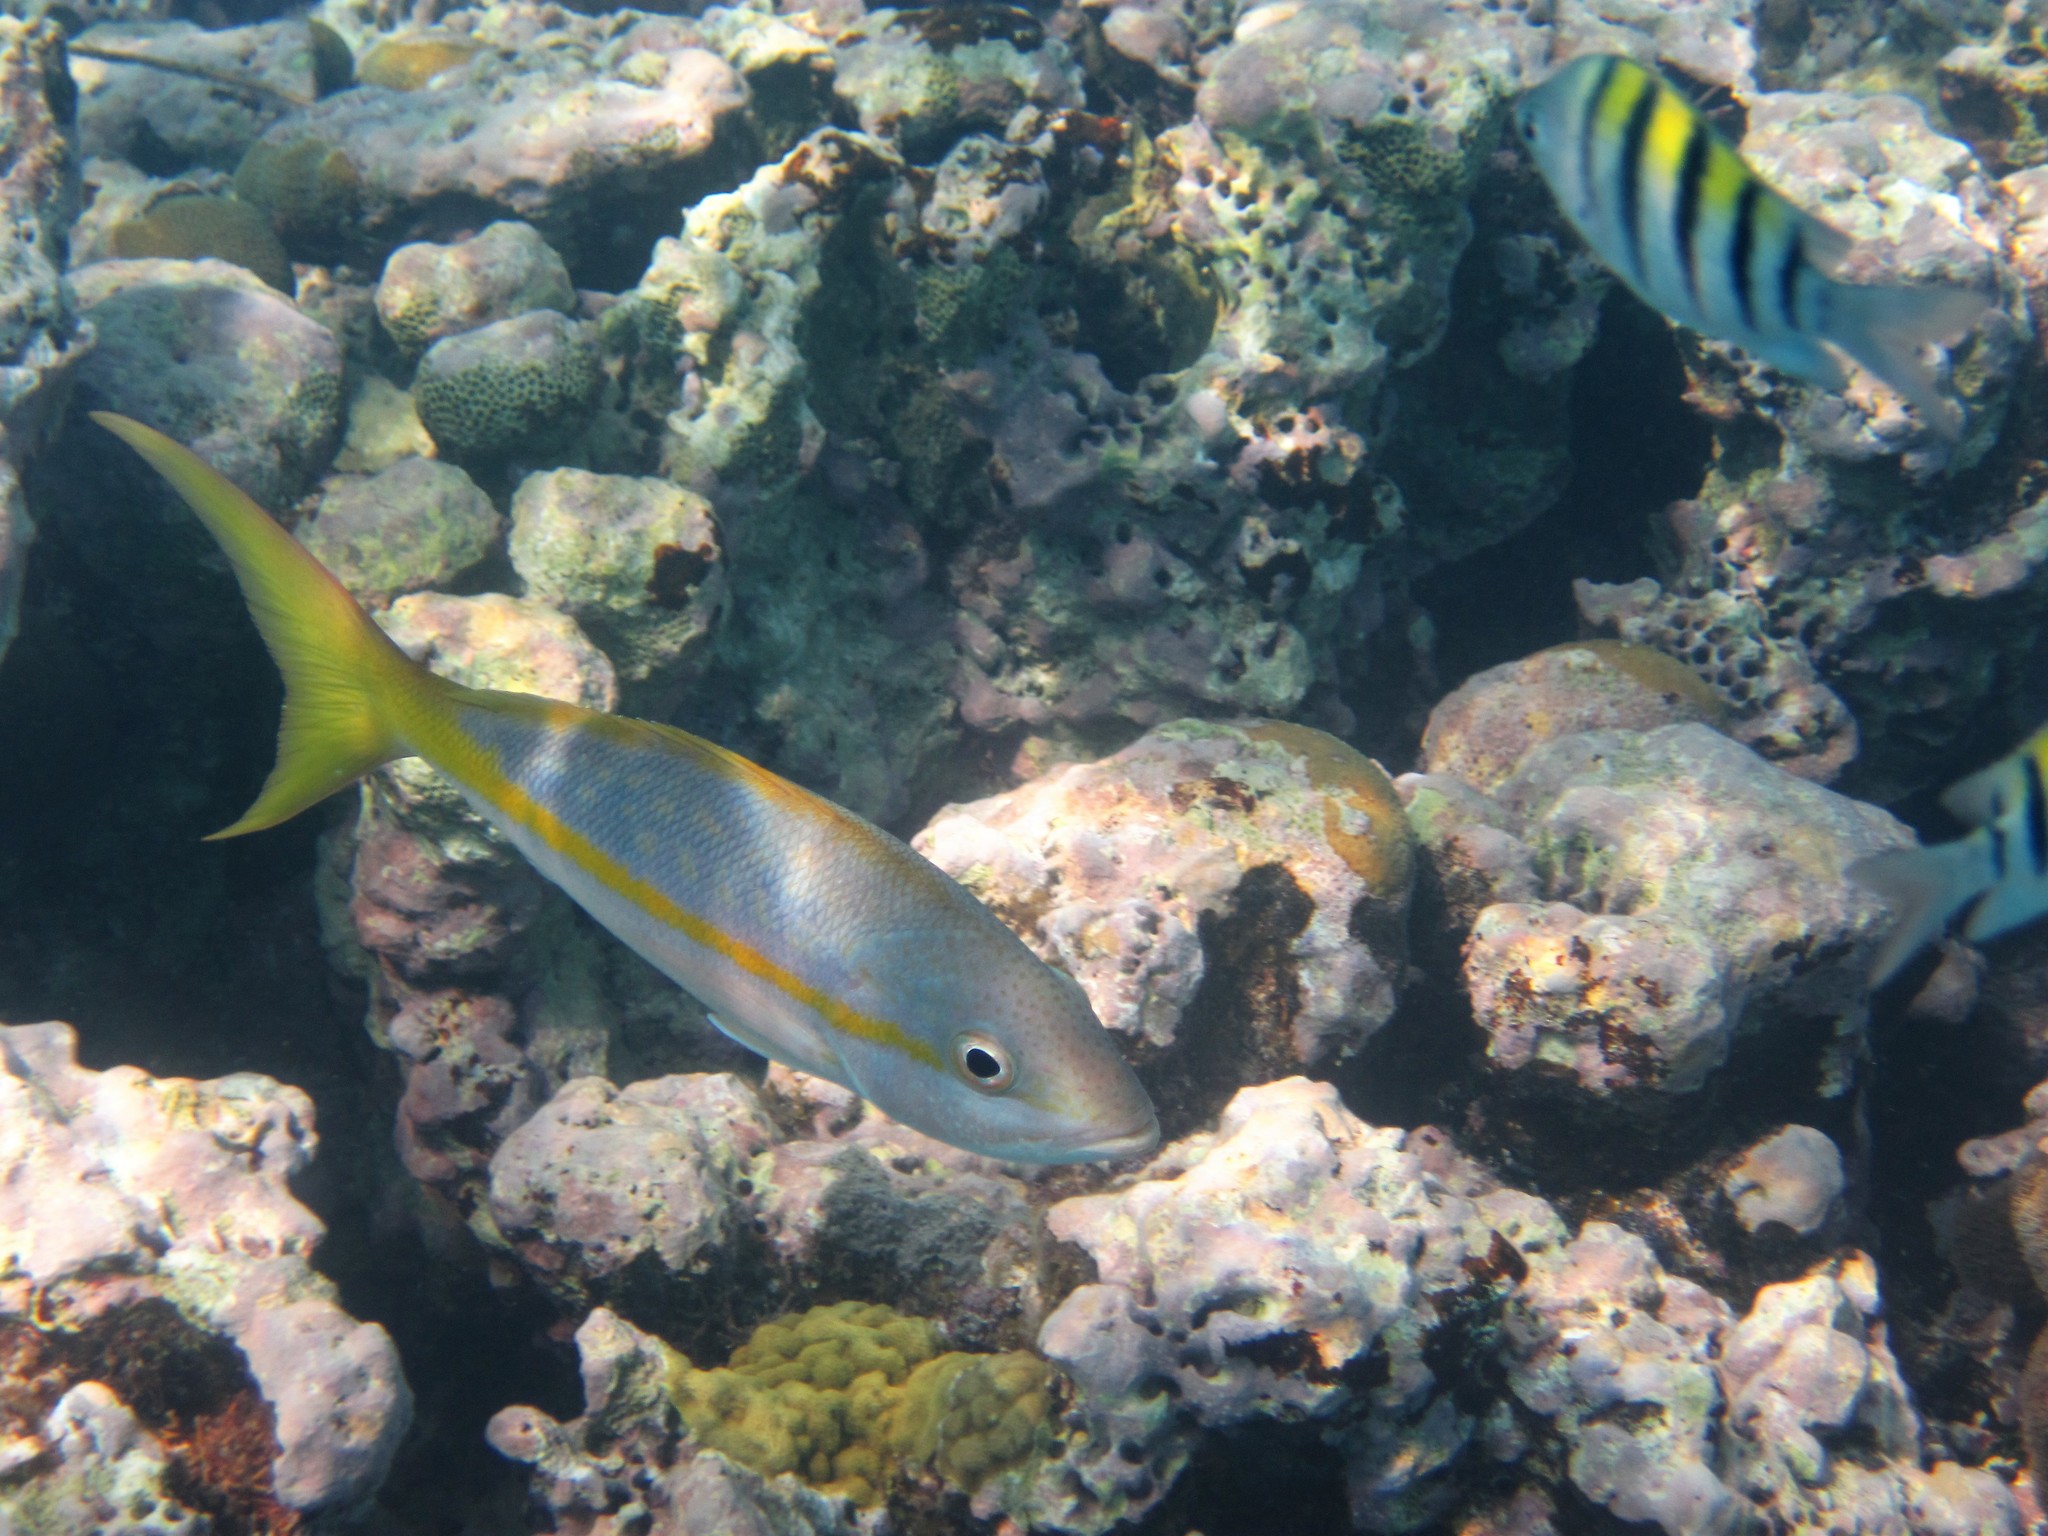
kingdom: Animalia
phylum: Chordata
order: Perciformes
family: Lutjanidae
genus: Ocyurus
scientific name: Ocyurus chrysurus
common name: Yellowtail snapper
